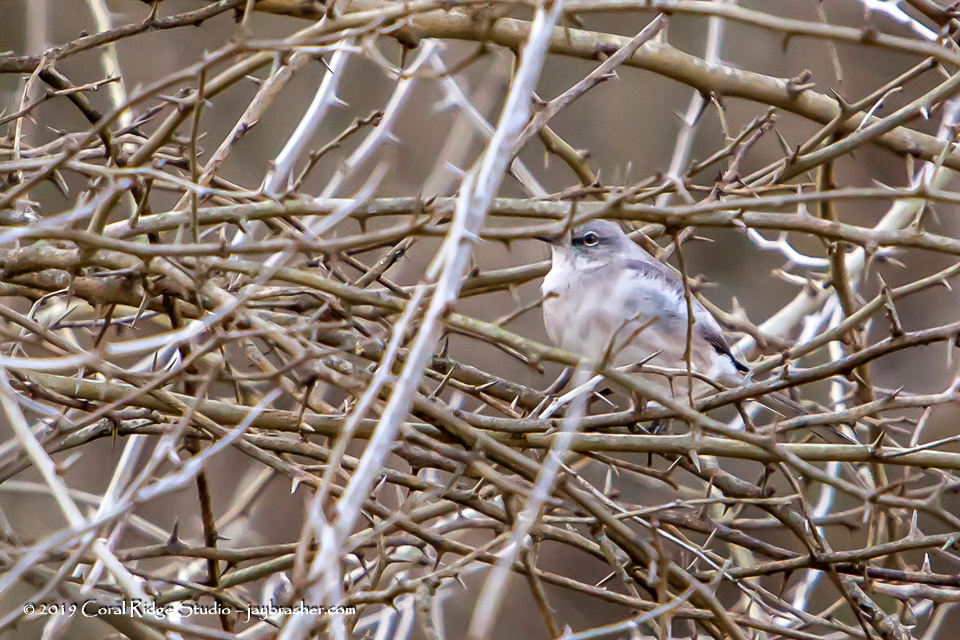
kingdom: Animalia
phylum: Chordata
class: Aves
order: Passeriformes
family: Mimidae
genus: Mimus
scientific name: Mimus polyglottos
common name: Northern mockingbird
